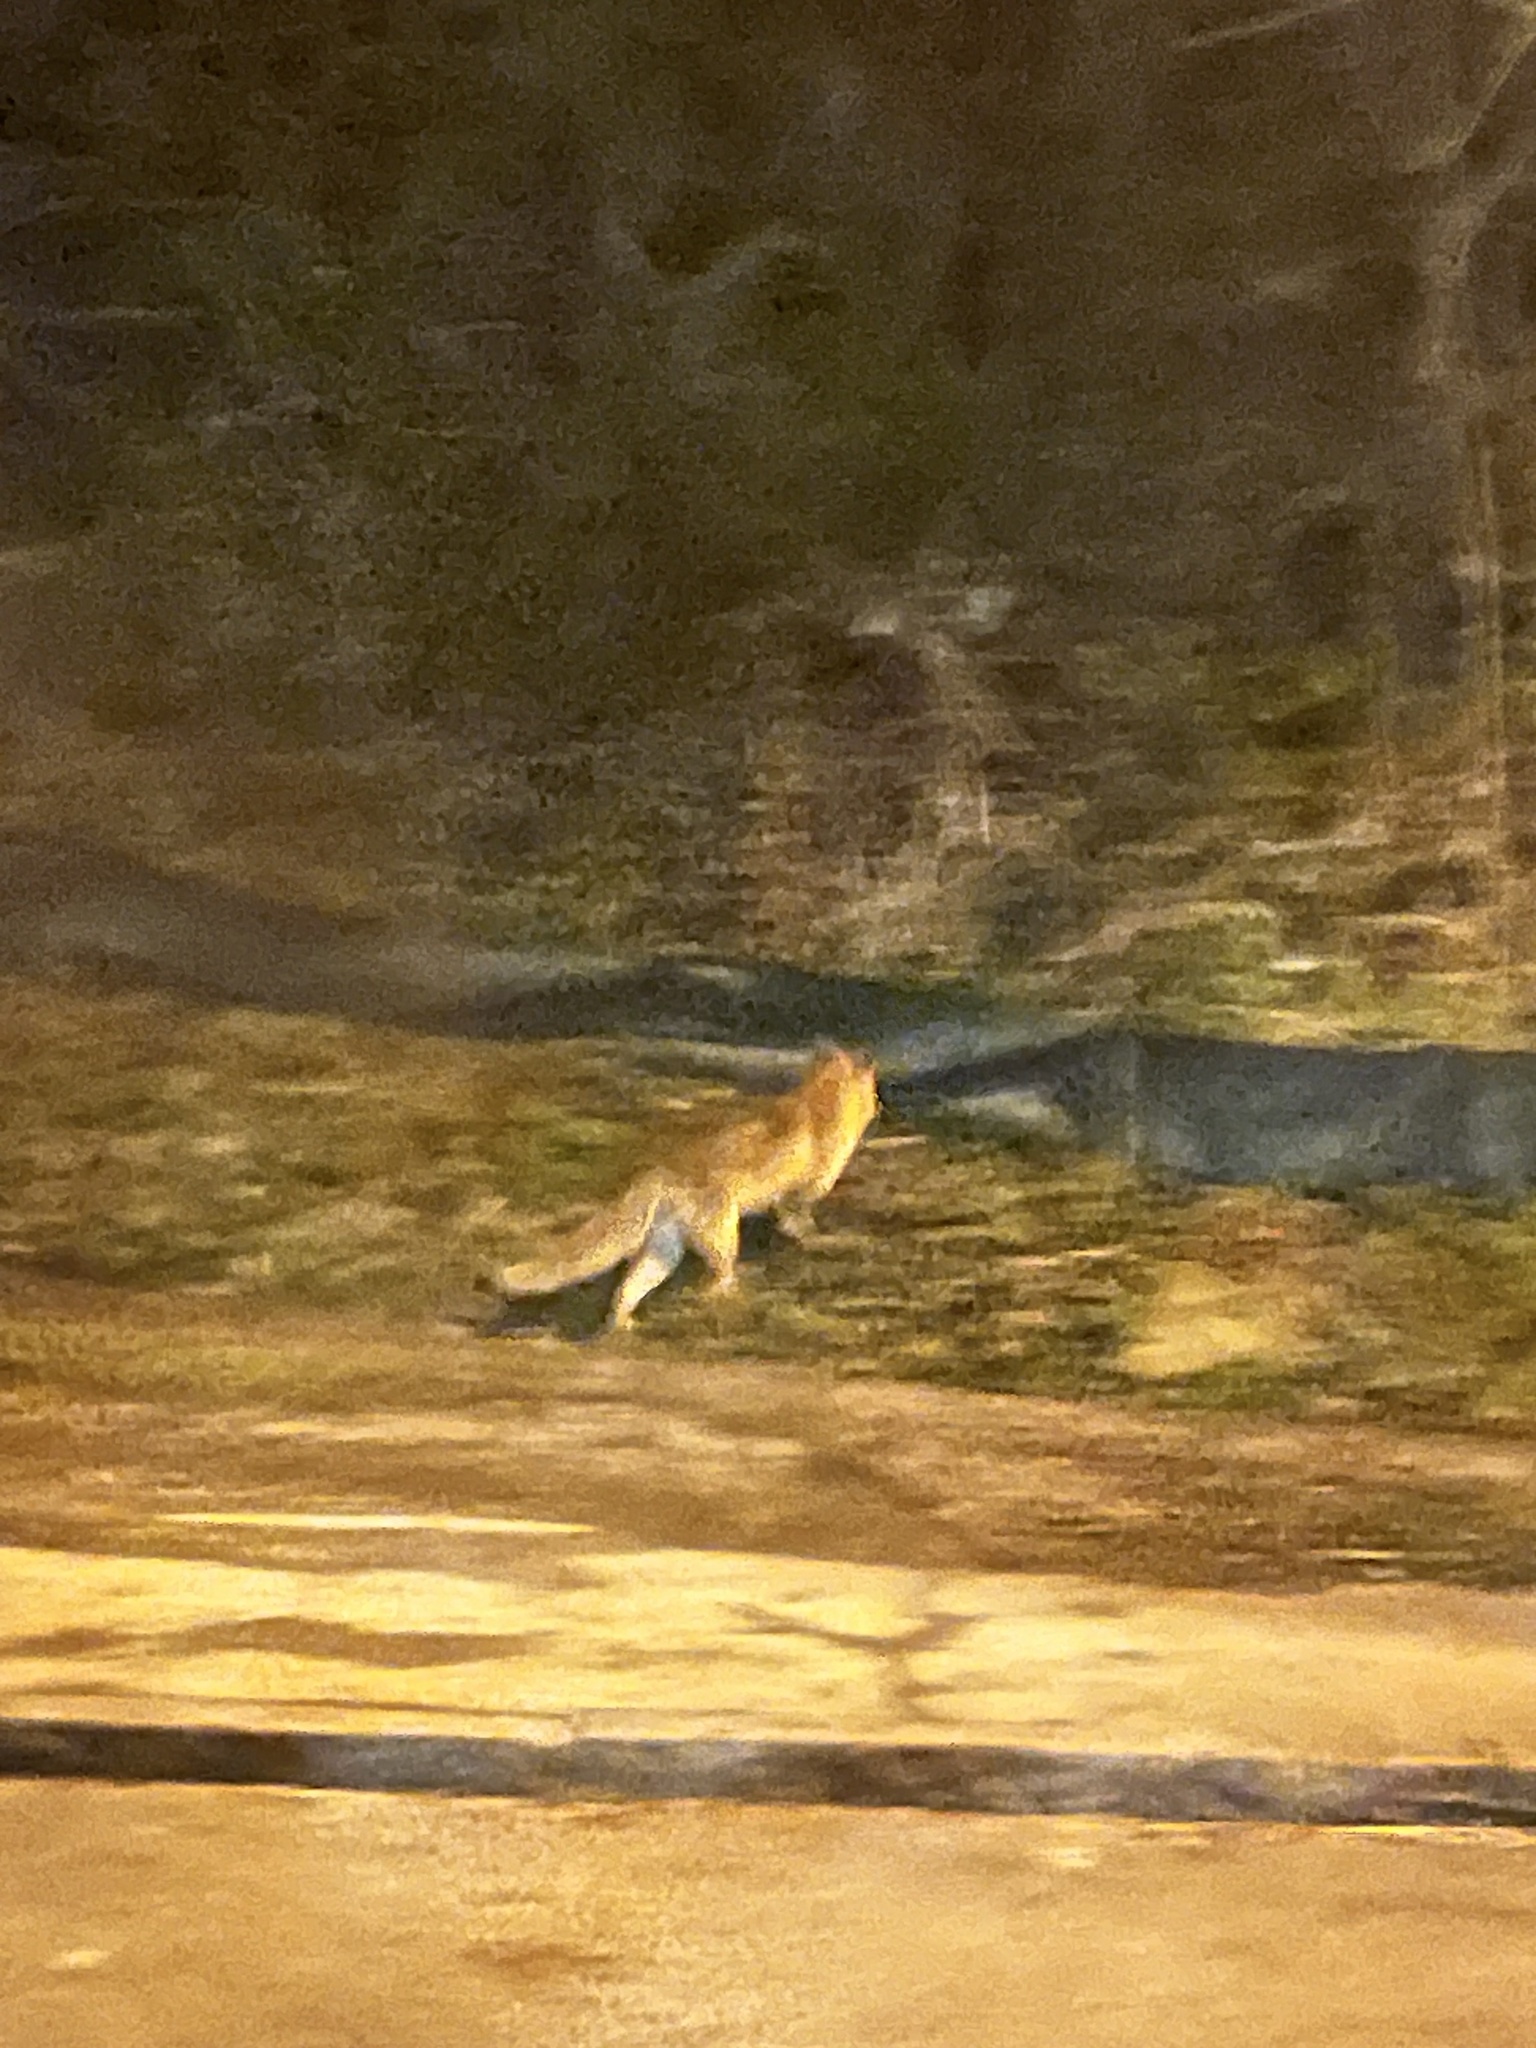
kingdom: Animalia
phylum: Chordata
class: Mammalia
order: Carnivora
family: Canidae
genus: Vulpes
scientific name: Vulpes vulpes
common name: Red fox
